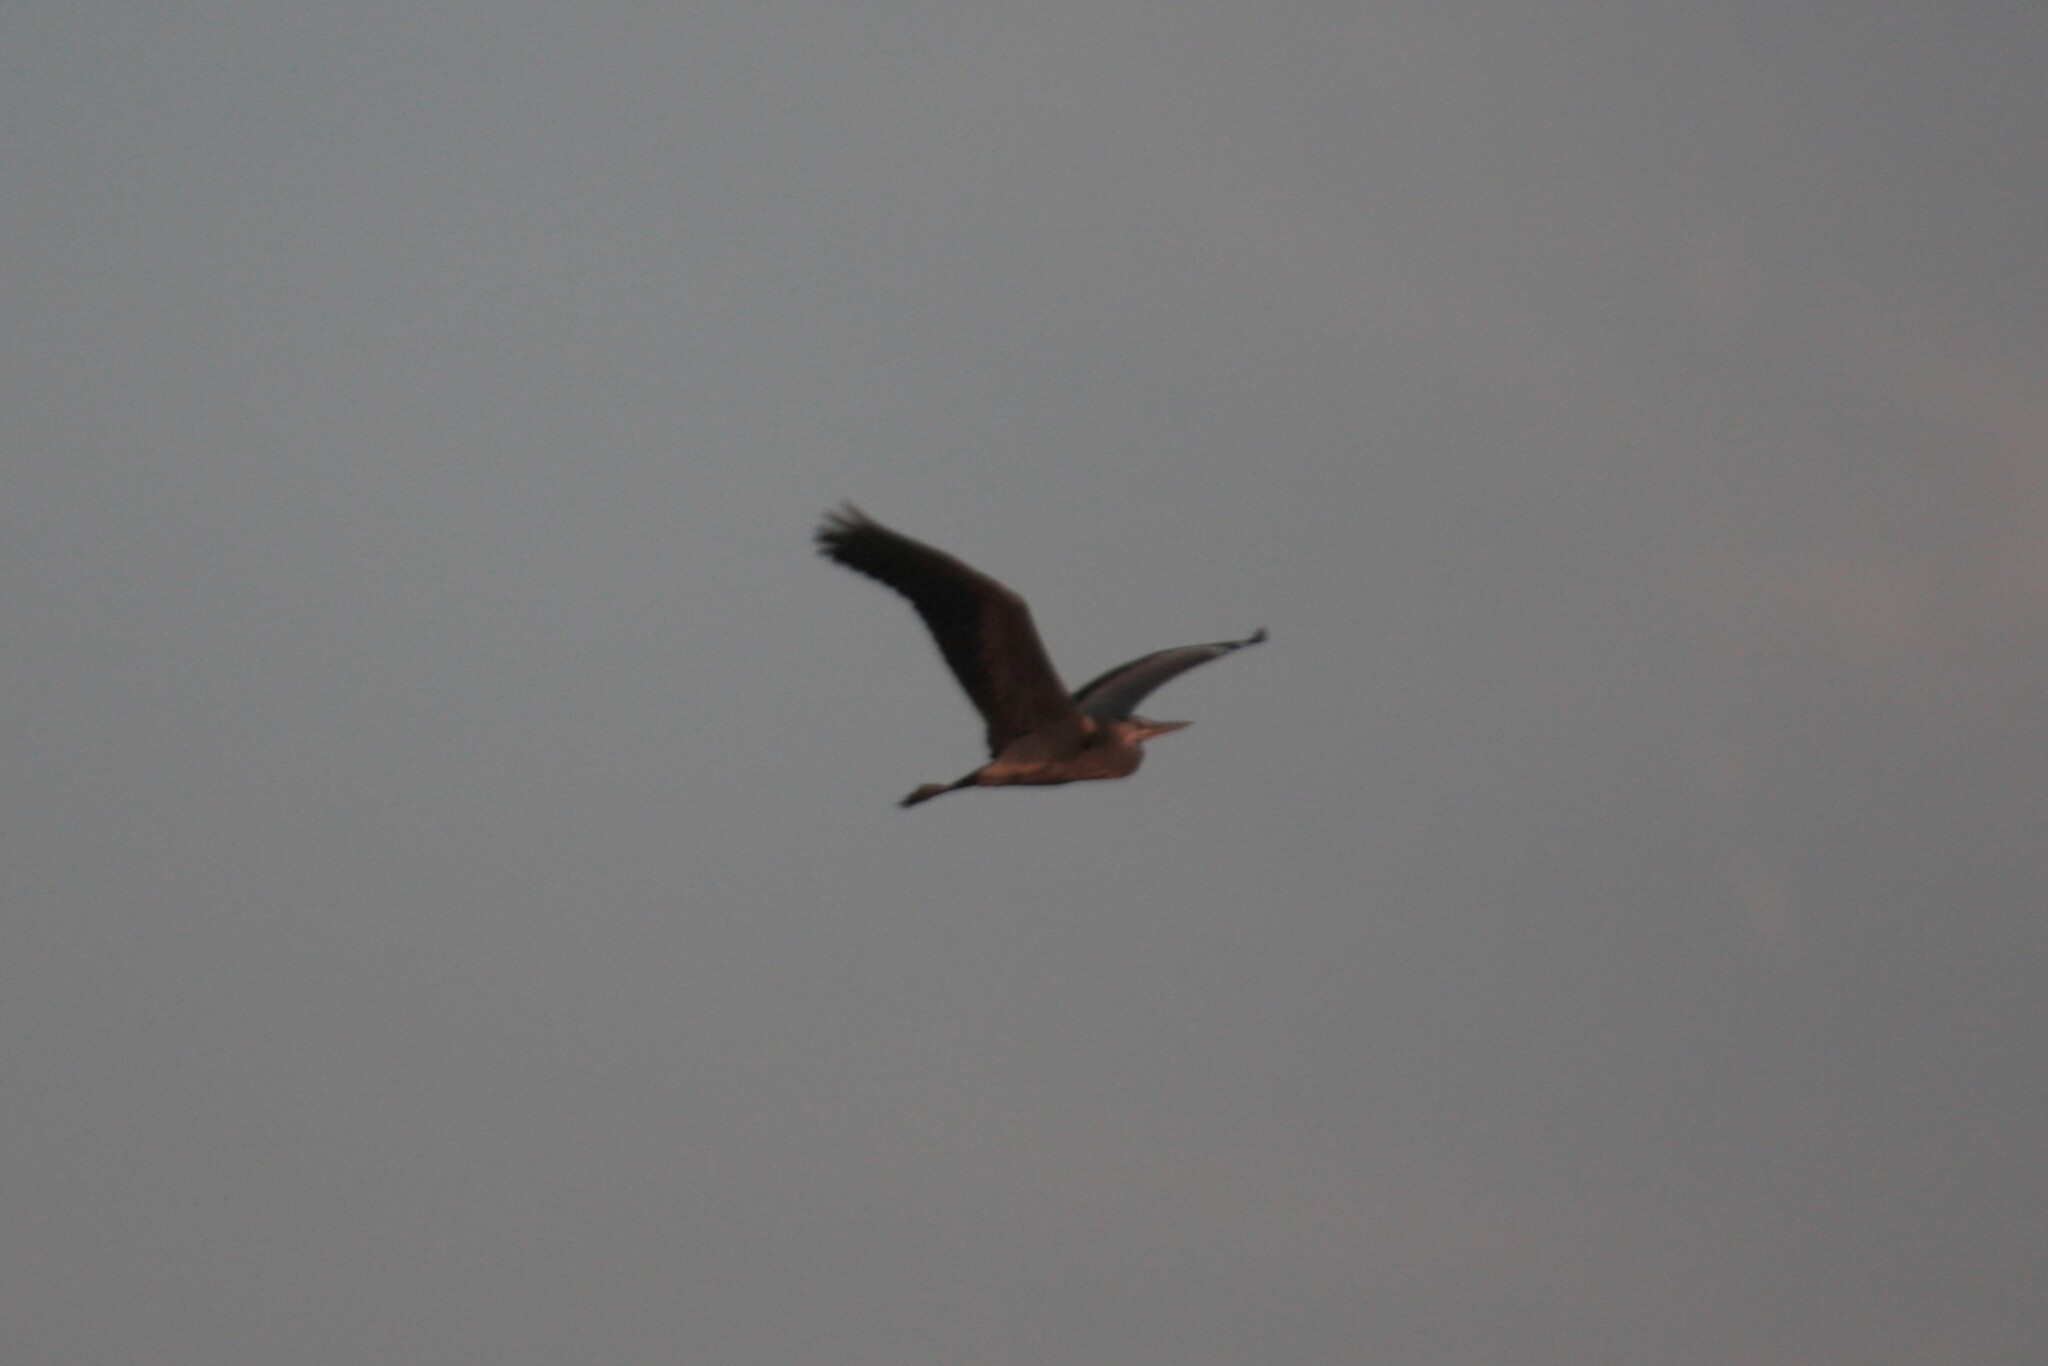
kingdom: Animalia
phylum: Chordata
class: Aves
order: Pelecaniformes
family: Ardeidae
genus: Ardea
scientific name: Ardea cinerea
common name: Grey heron
